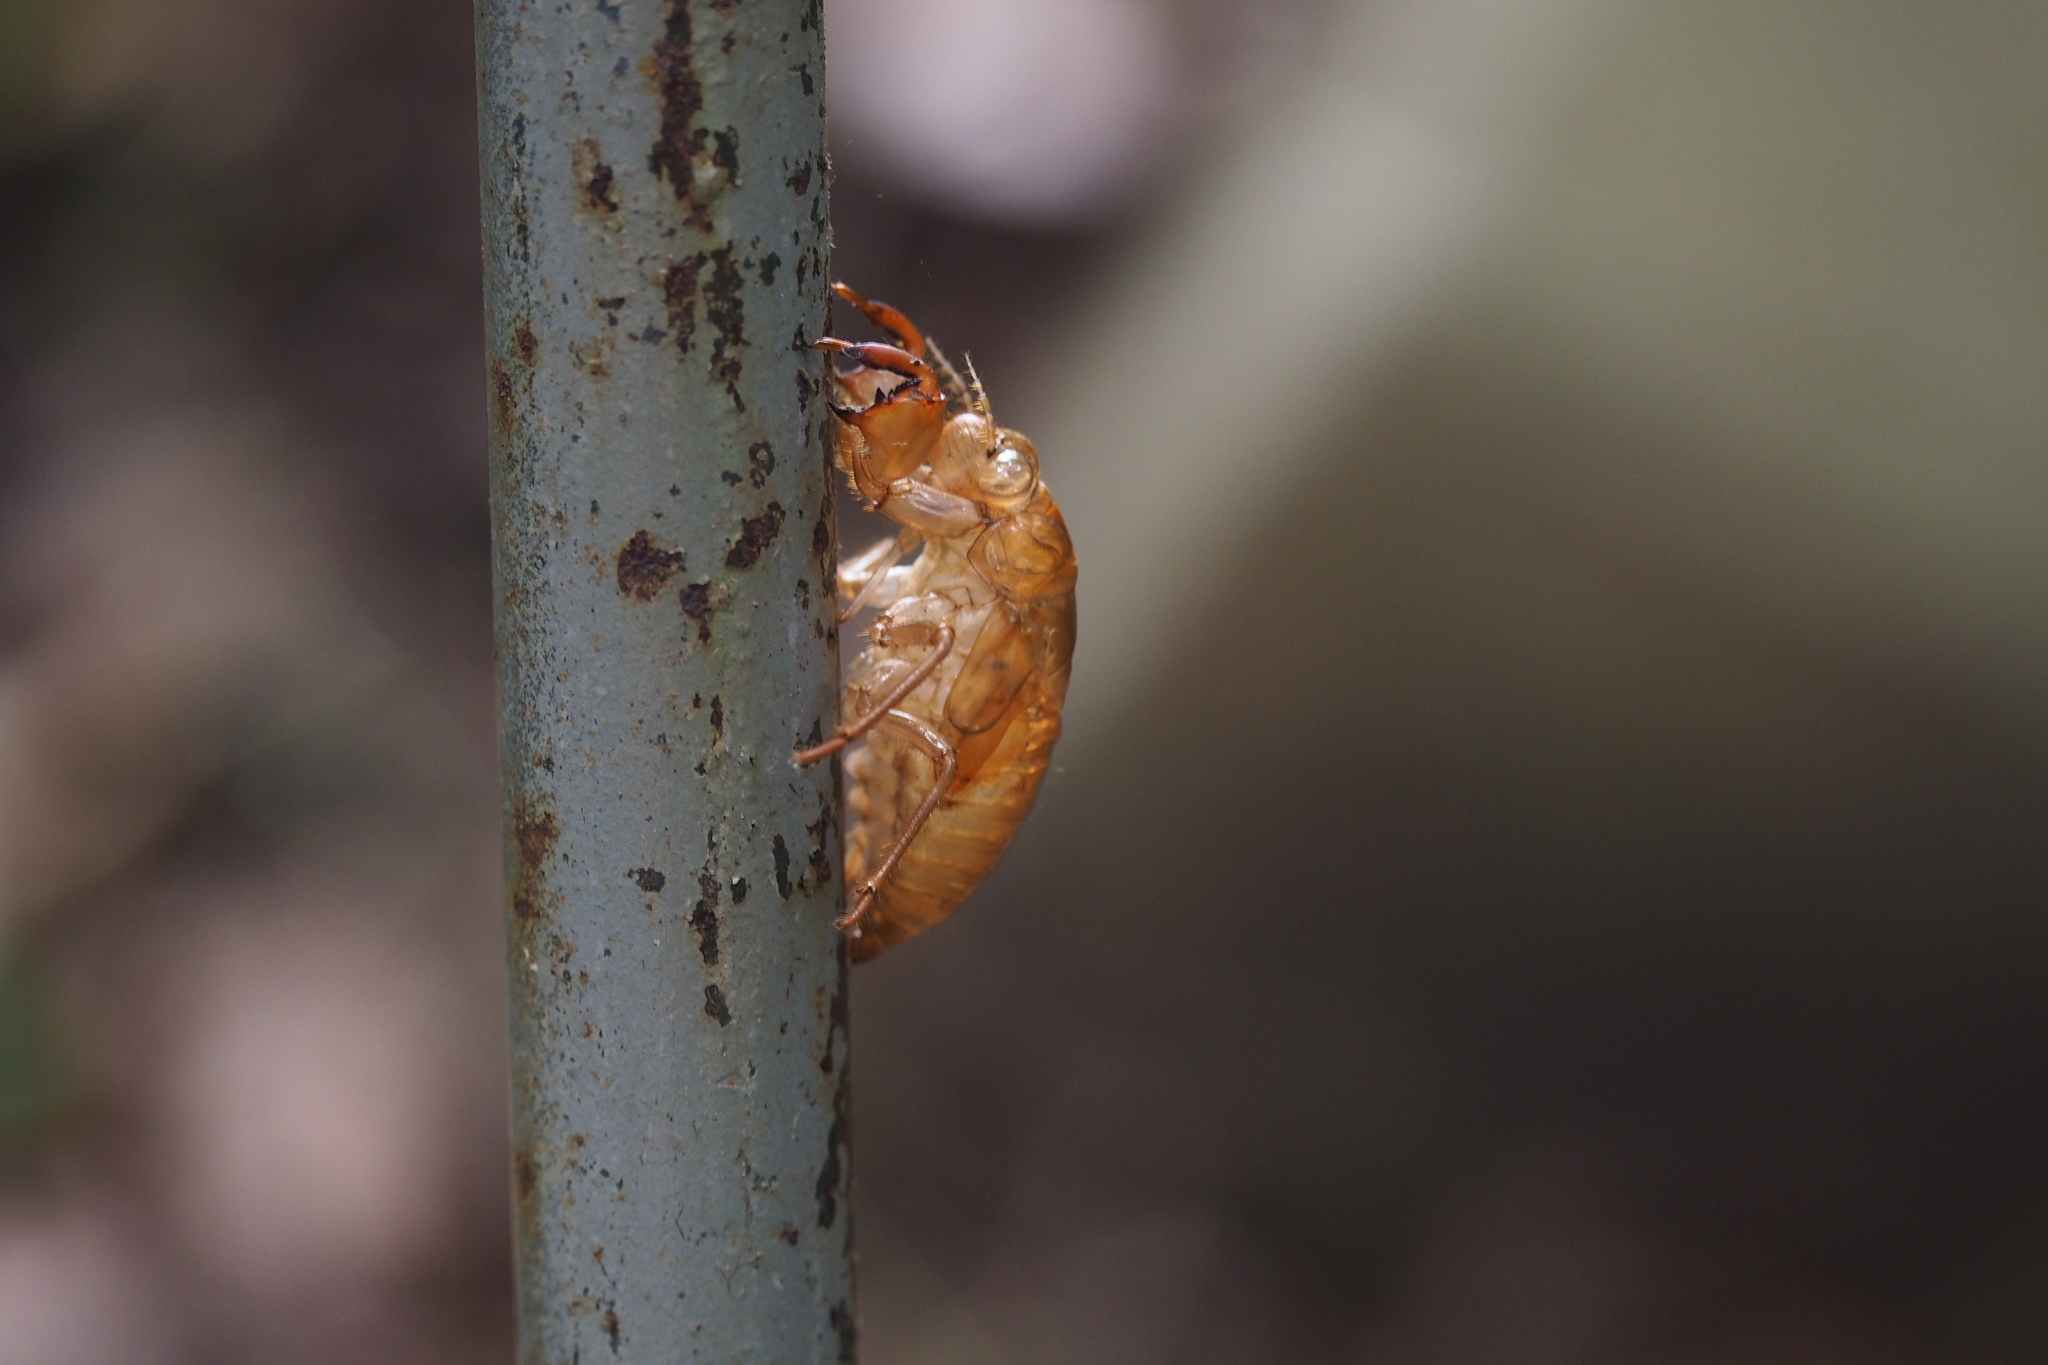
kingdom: Animalia
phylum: Arthropoda
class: Insecta
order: Hemiptera
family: Cicadidae
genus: Tanna
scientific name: Tanna japonensis
